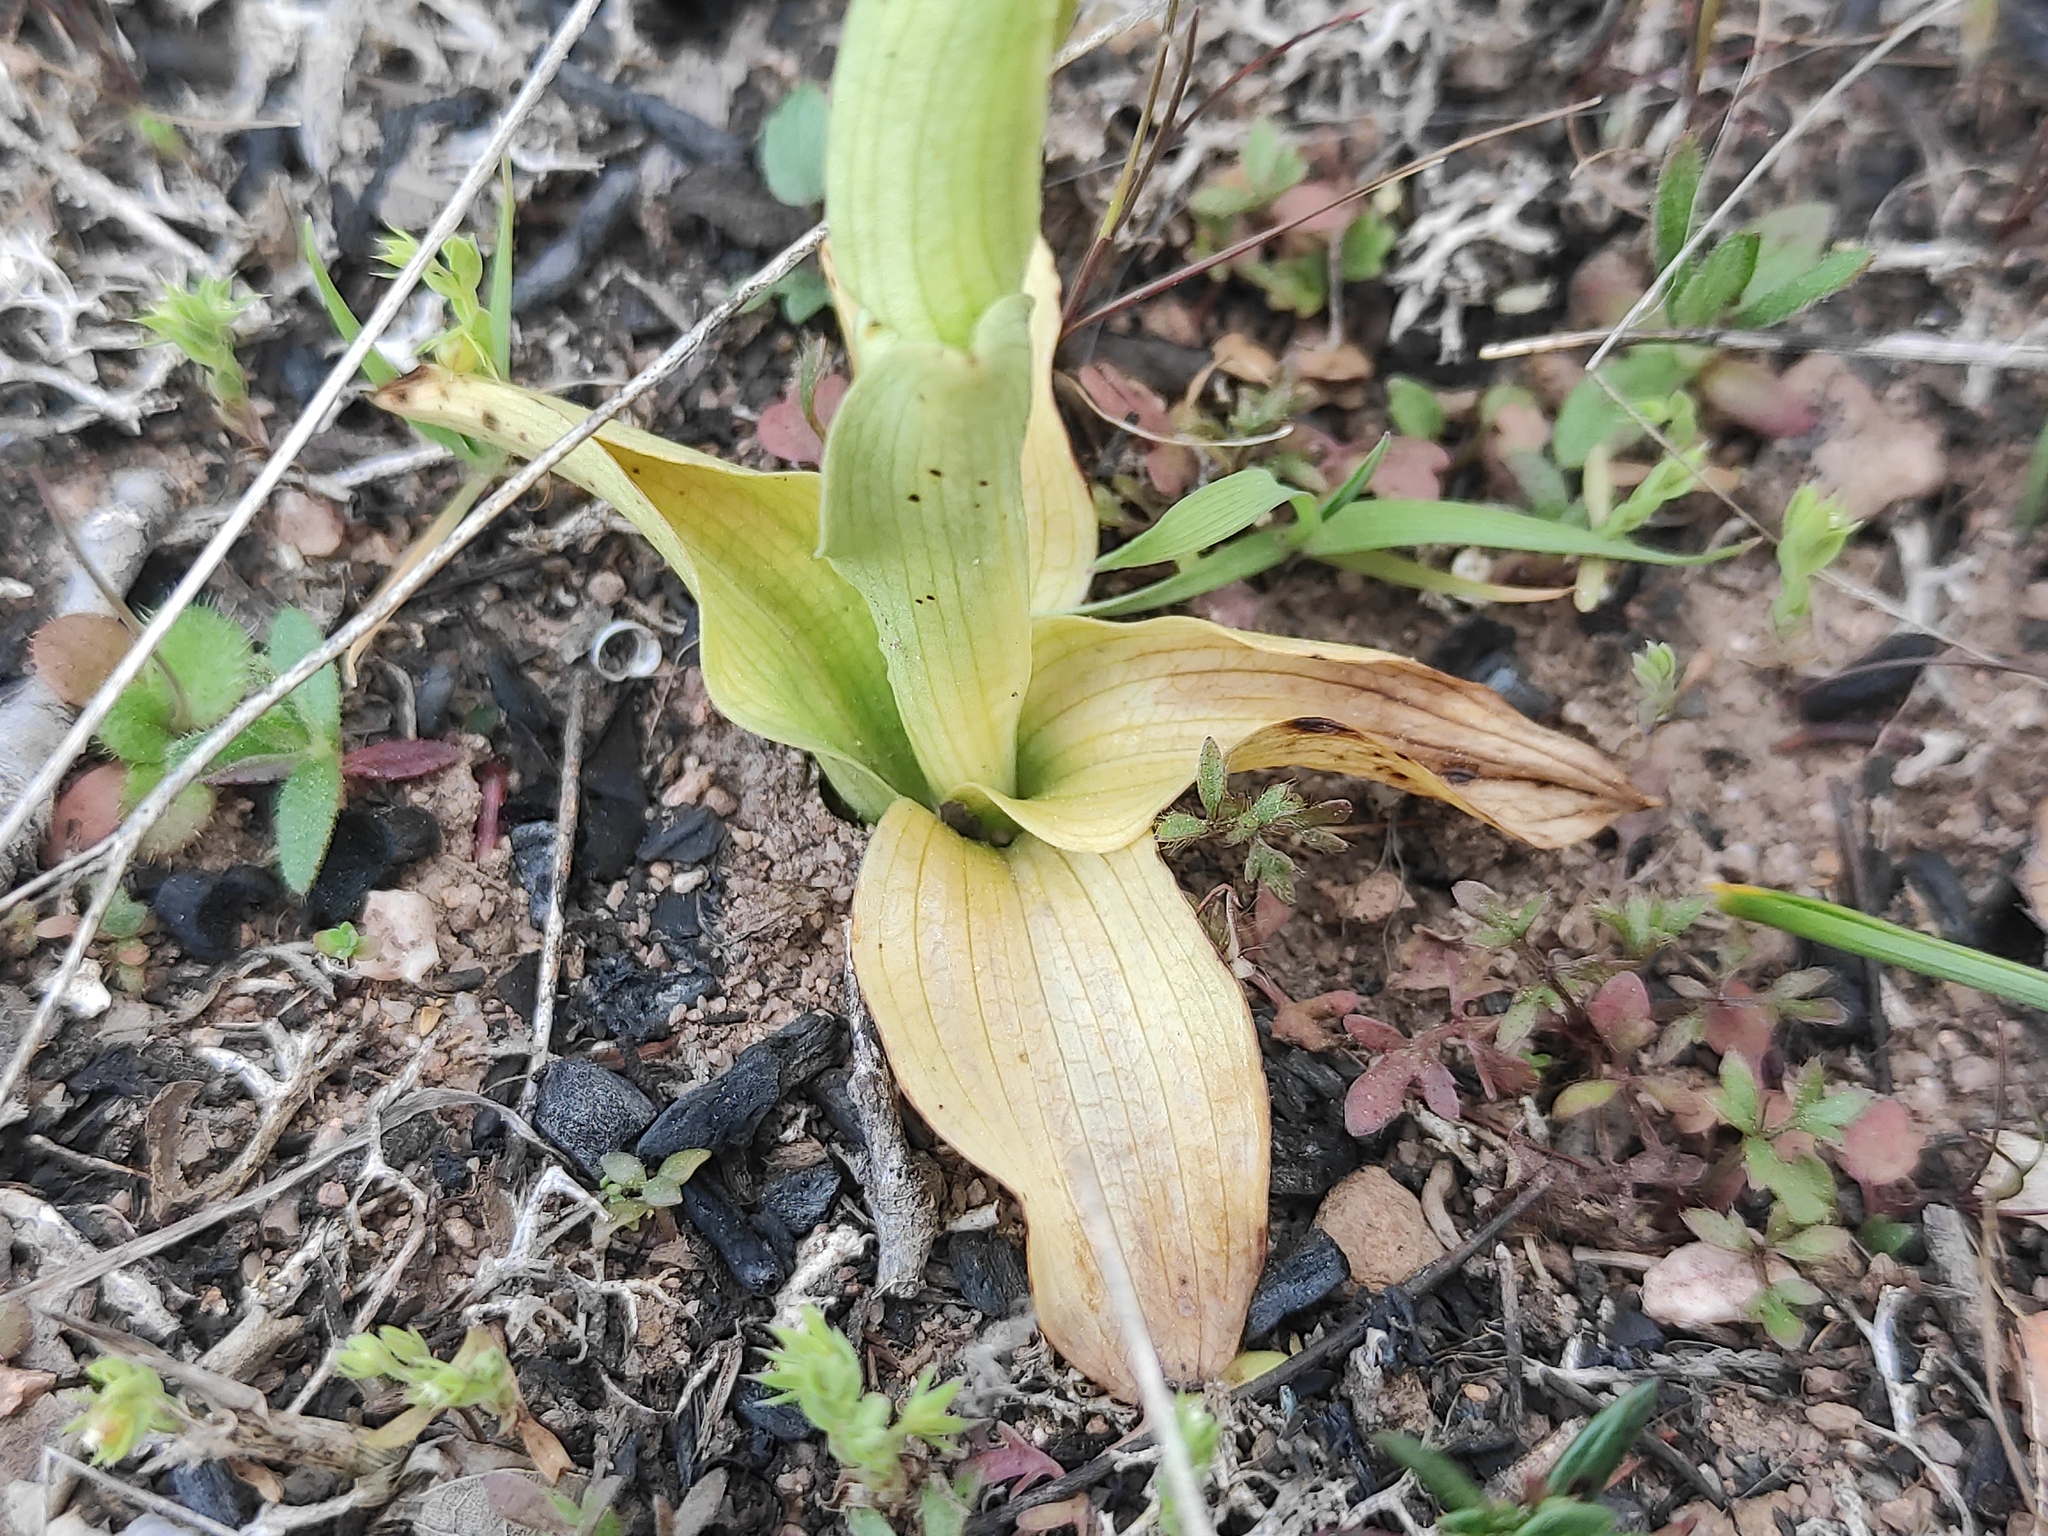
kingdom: Plantae
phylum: Tracheophyta
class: Liliopsida
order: Asparagales
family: Orchidaceae
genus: Neotinea
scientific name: Neotinea lactea
